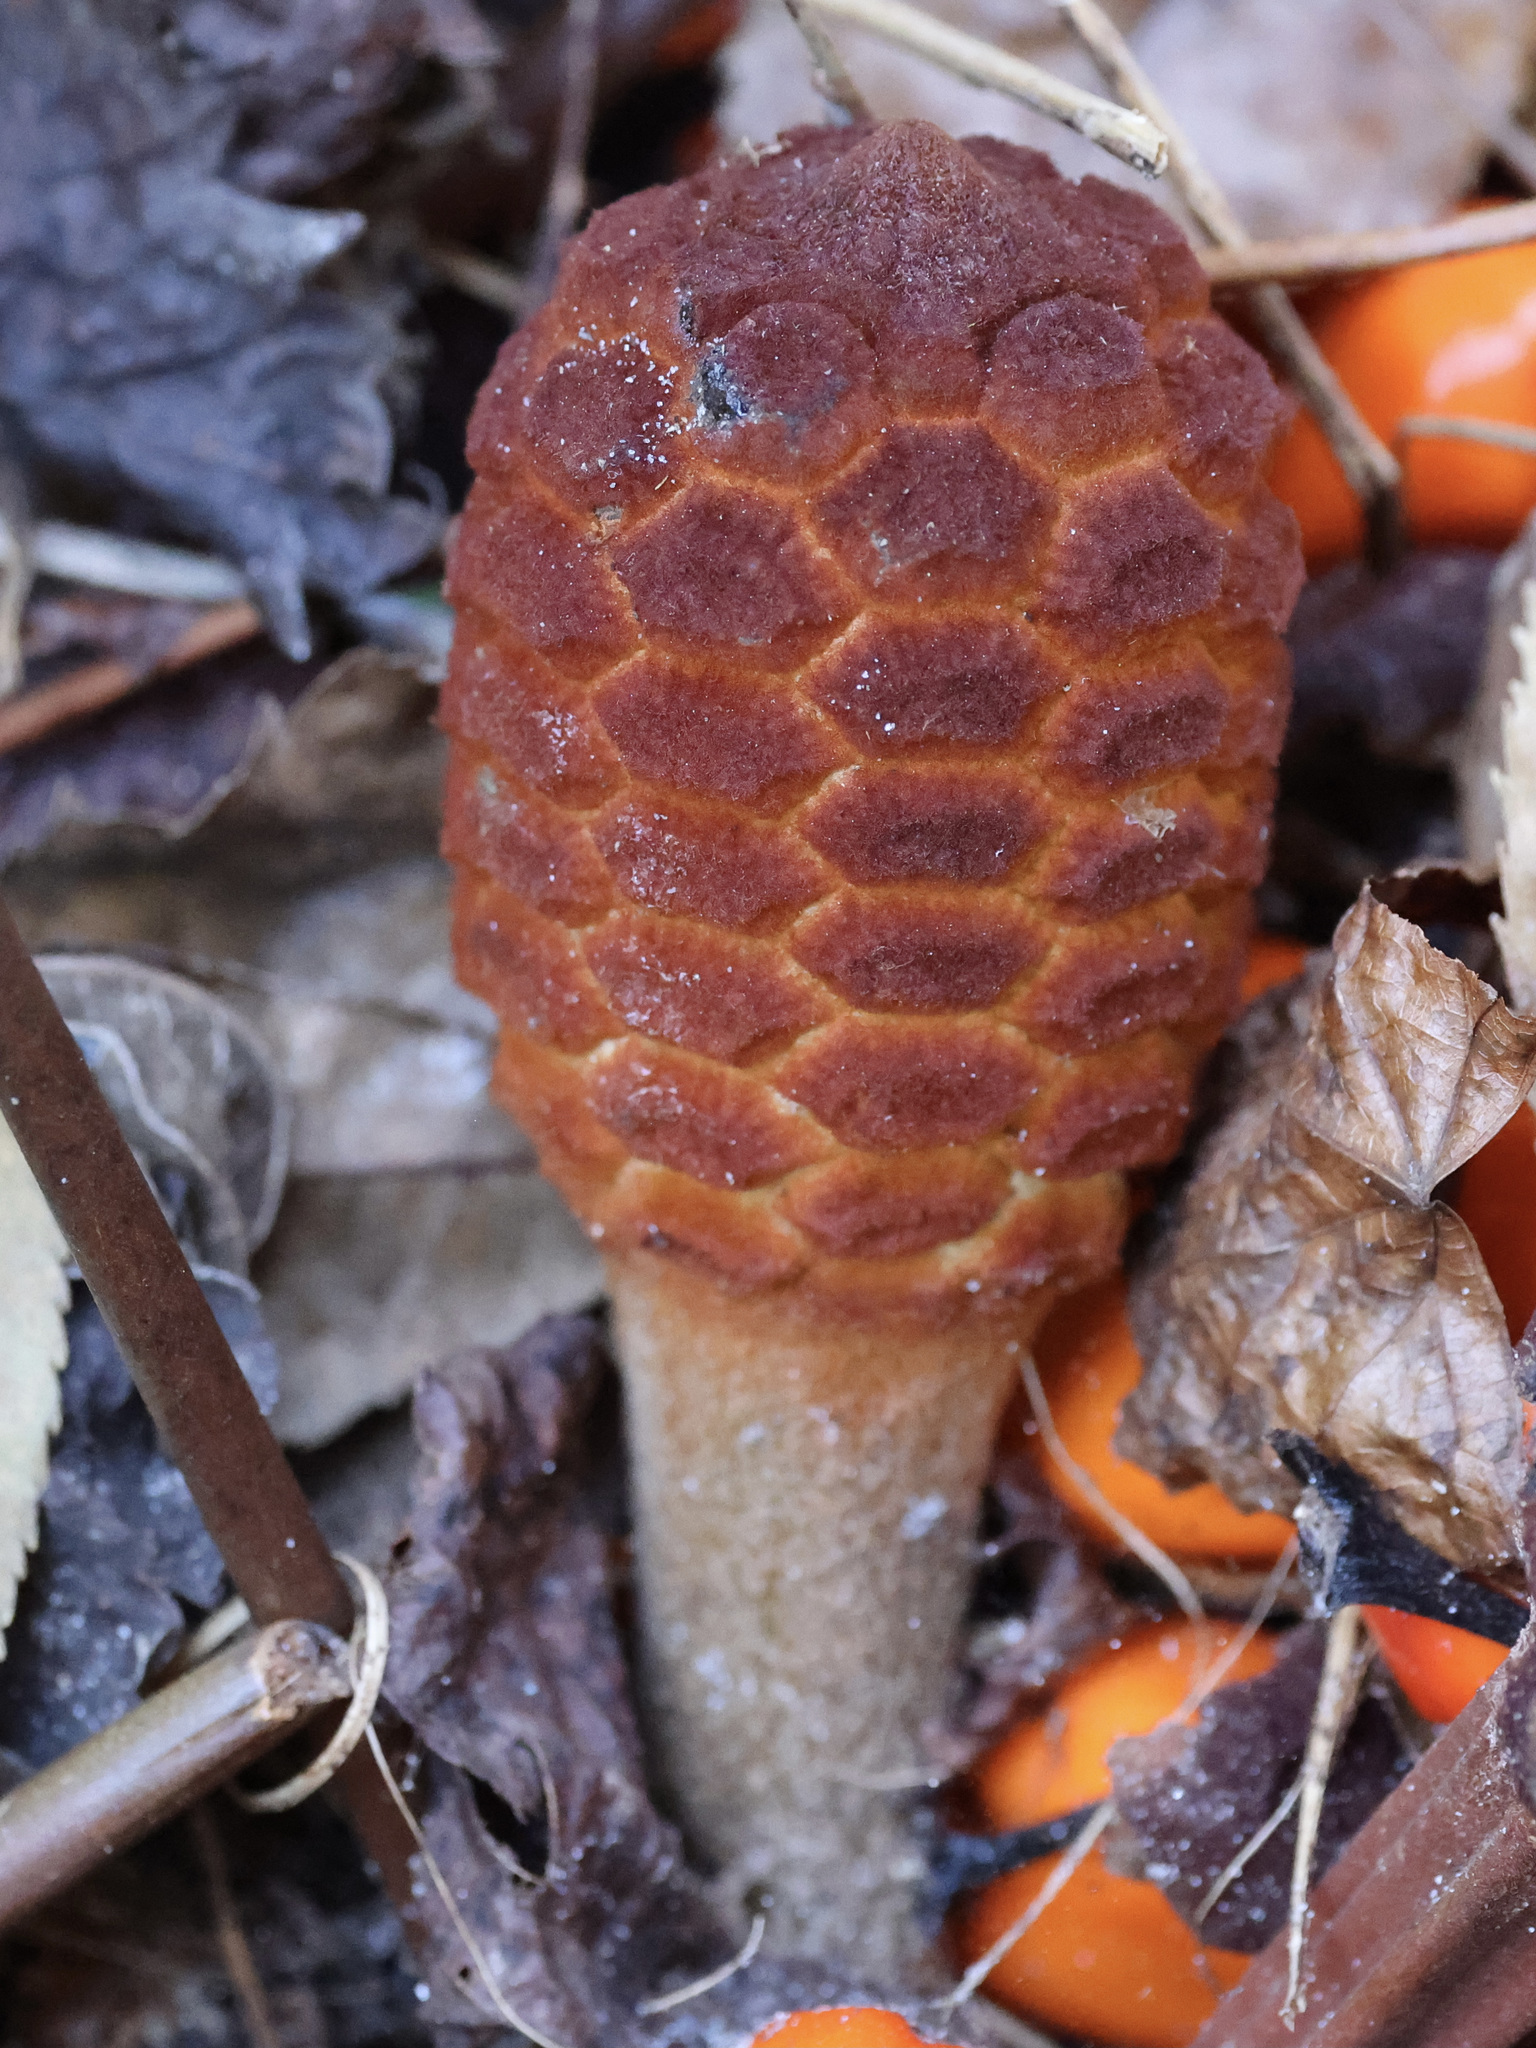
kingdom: Plantae
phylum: Tracheophyta
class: Cycadopsida
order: Cycadales
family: Zamiaceae
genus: Zamia
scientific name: Zamia integrifolia
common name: Florida arrowroot
